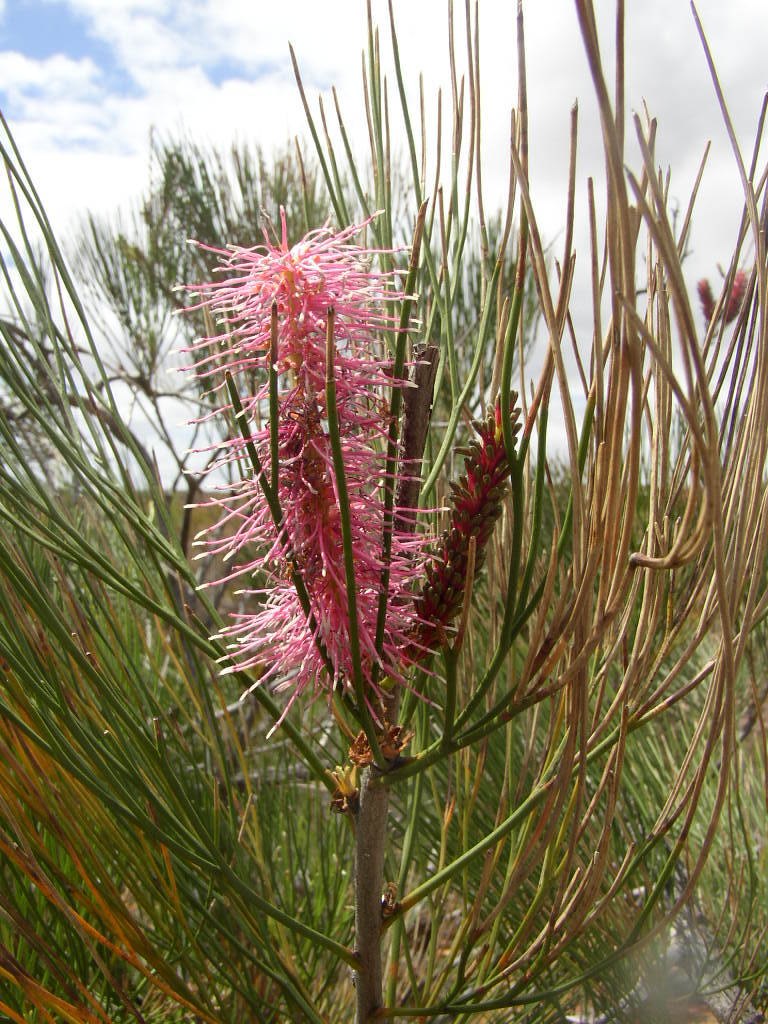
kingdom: Plantae
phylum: Tracheophyta
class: Magnoliopsida
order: Proteales
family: Proteaceae
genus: Grevillea
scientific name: Grevillea petrophiloides
